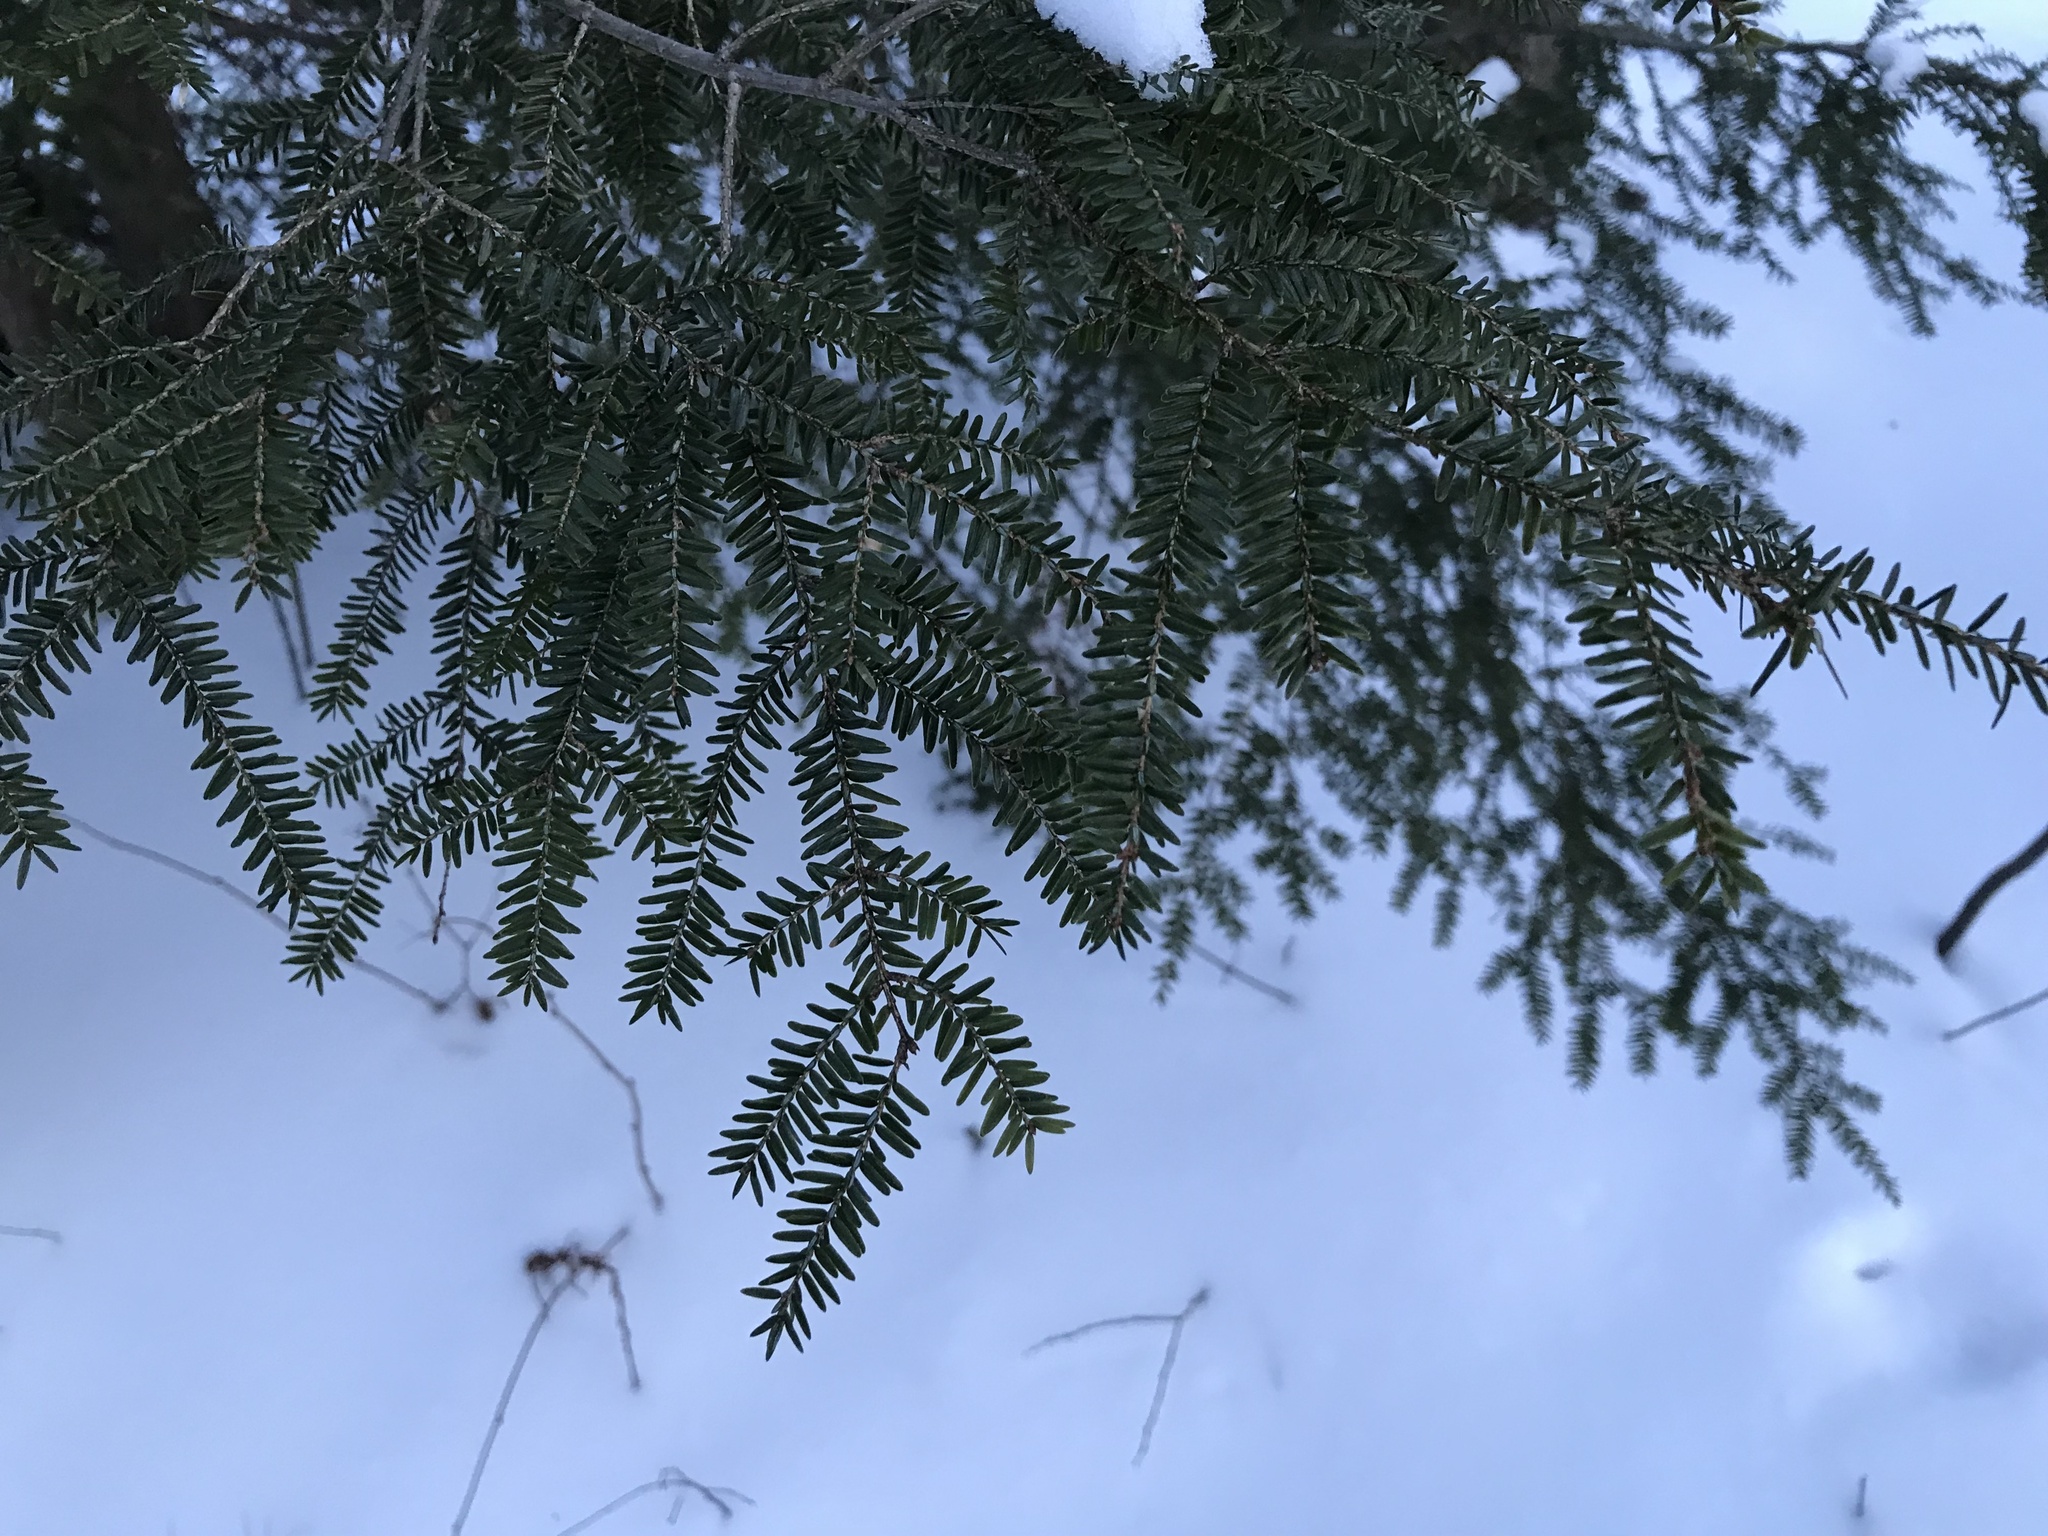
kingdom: Plantae
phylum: Tracheophyta
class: Pinopsida
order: Pinales
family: Pinaceae
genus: Tsuga
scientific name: Tsuga canadensis
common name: Eastern hemlock
